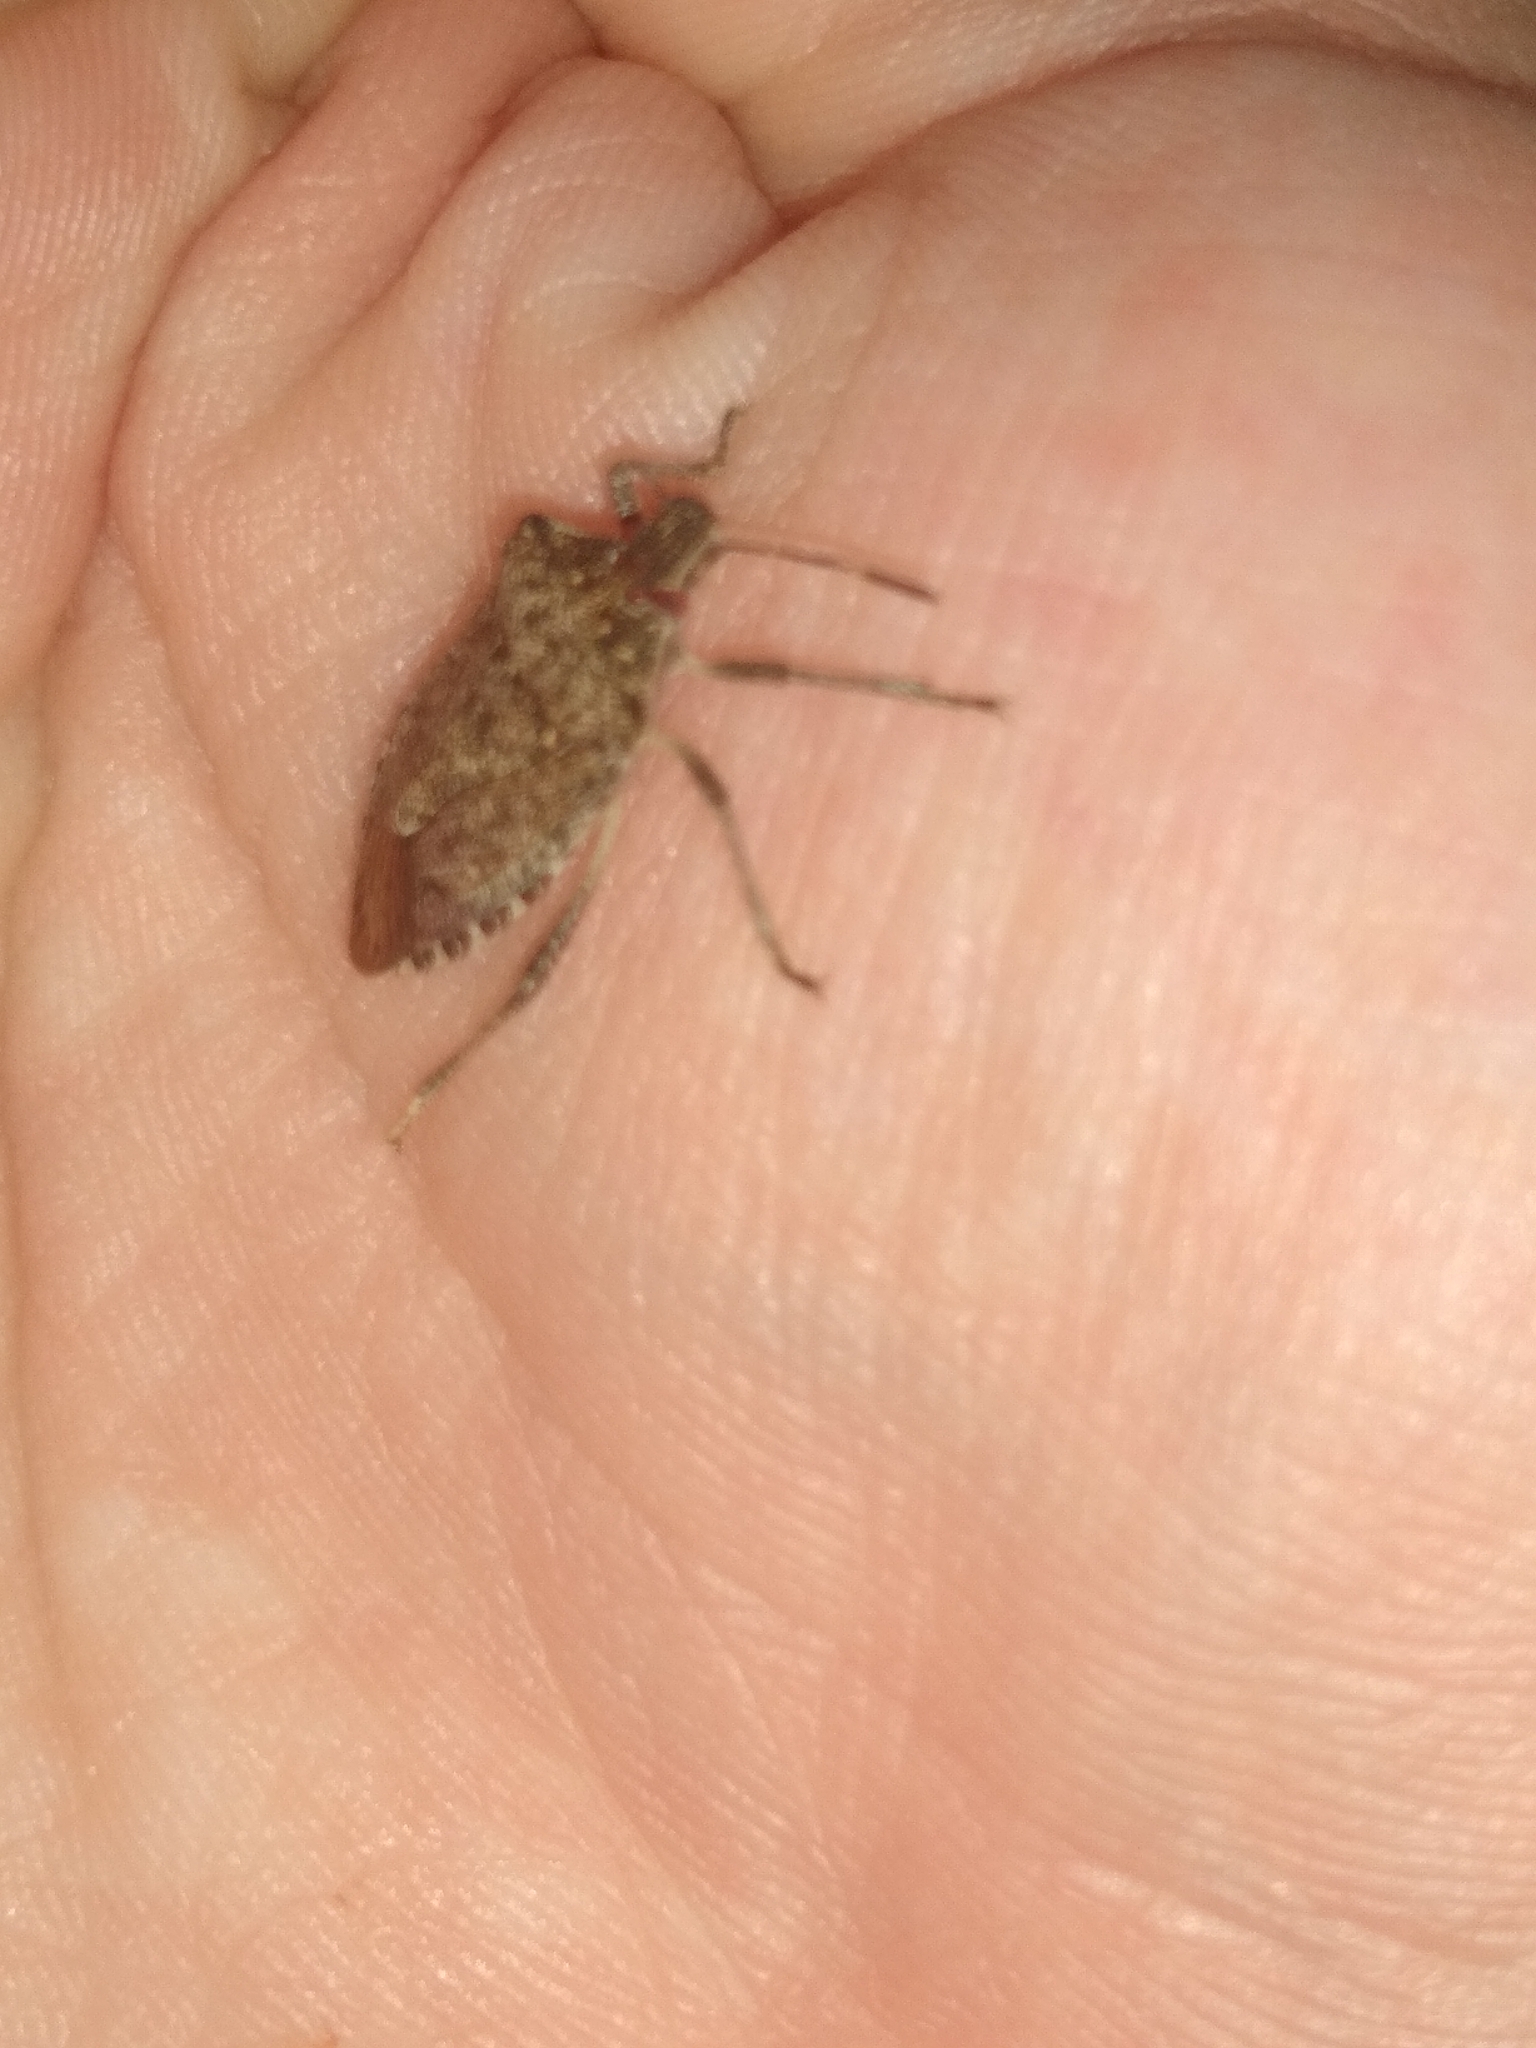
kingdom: Animalia
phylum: Arthropoda
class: Insecta
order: Hemiptera
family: Pentatomidae
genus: Halyomorpha
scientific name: Halyomorpha halys
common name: Brown marmorated stink bug
